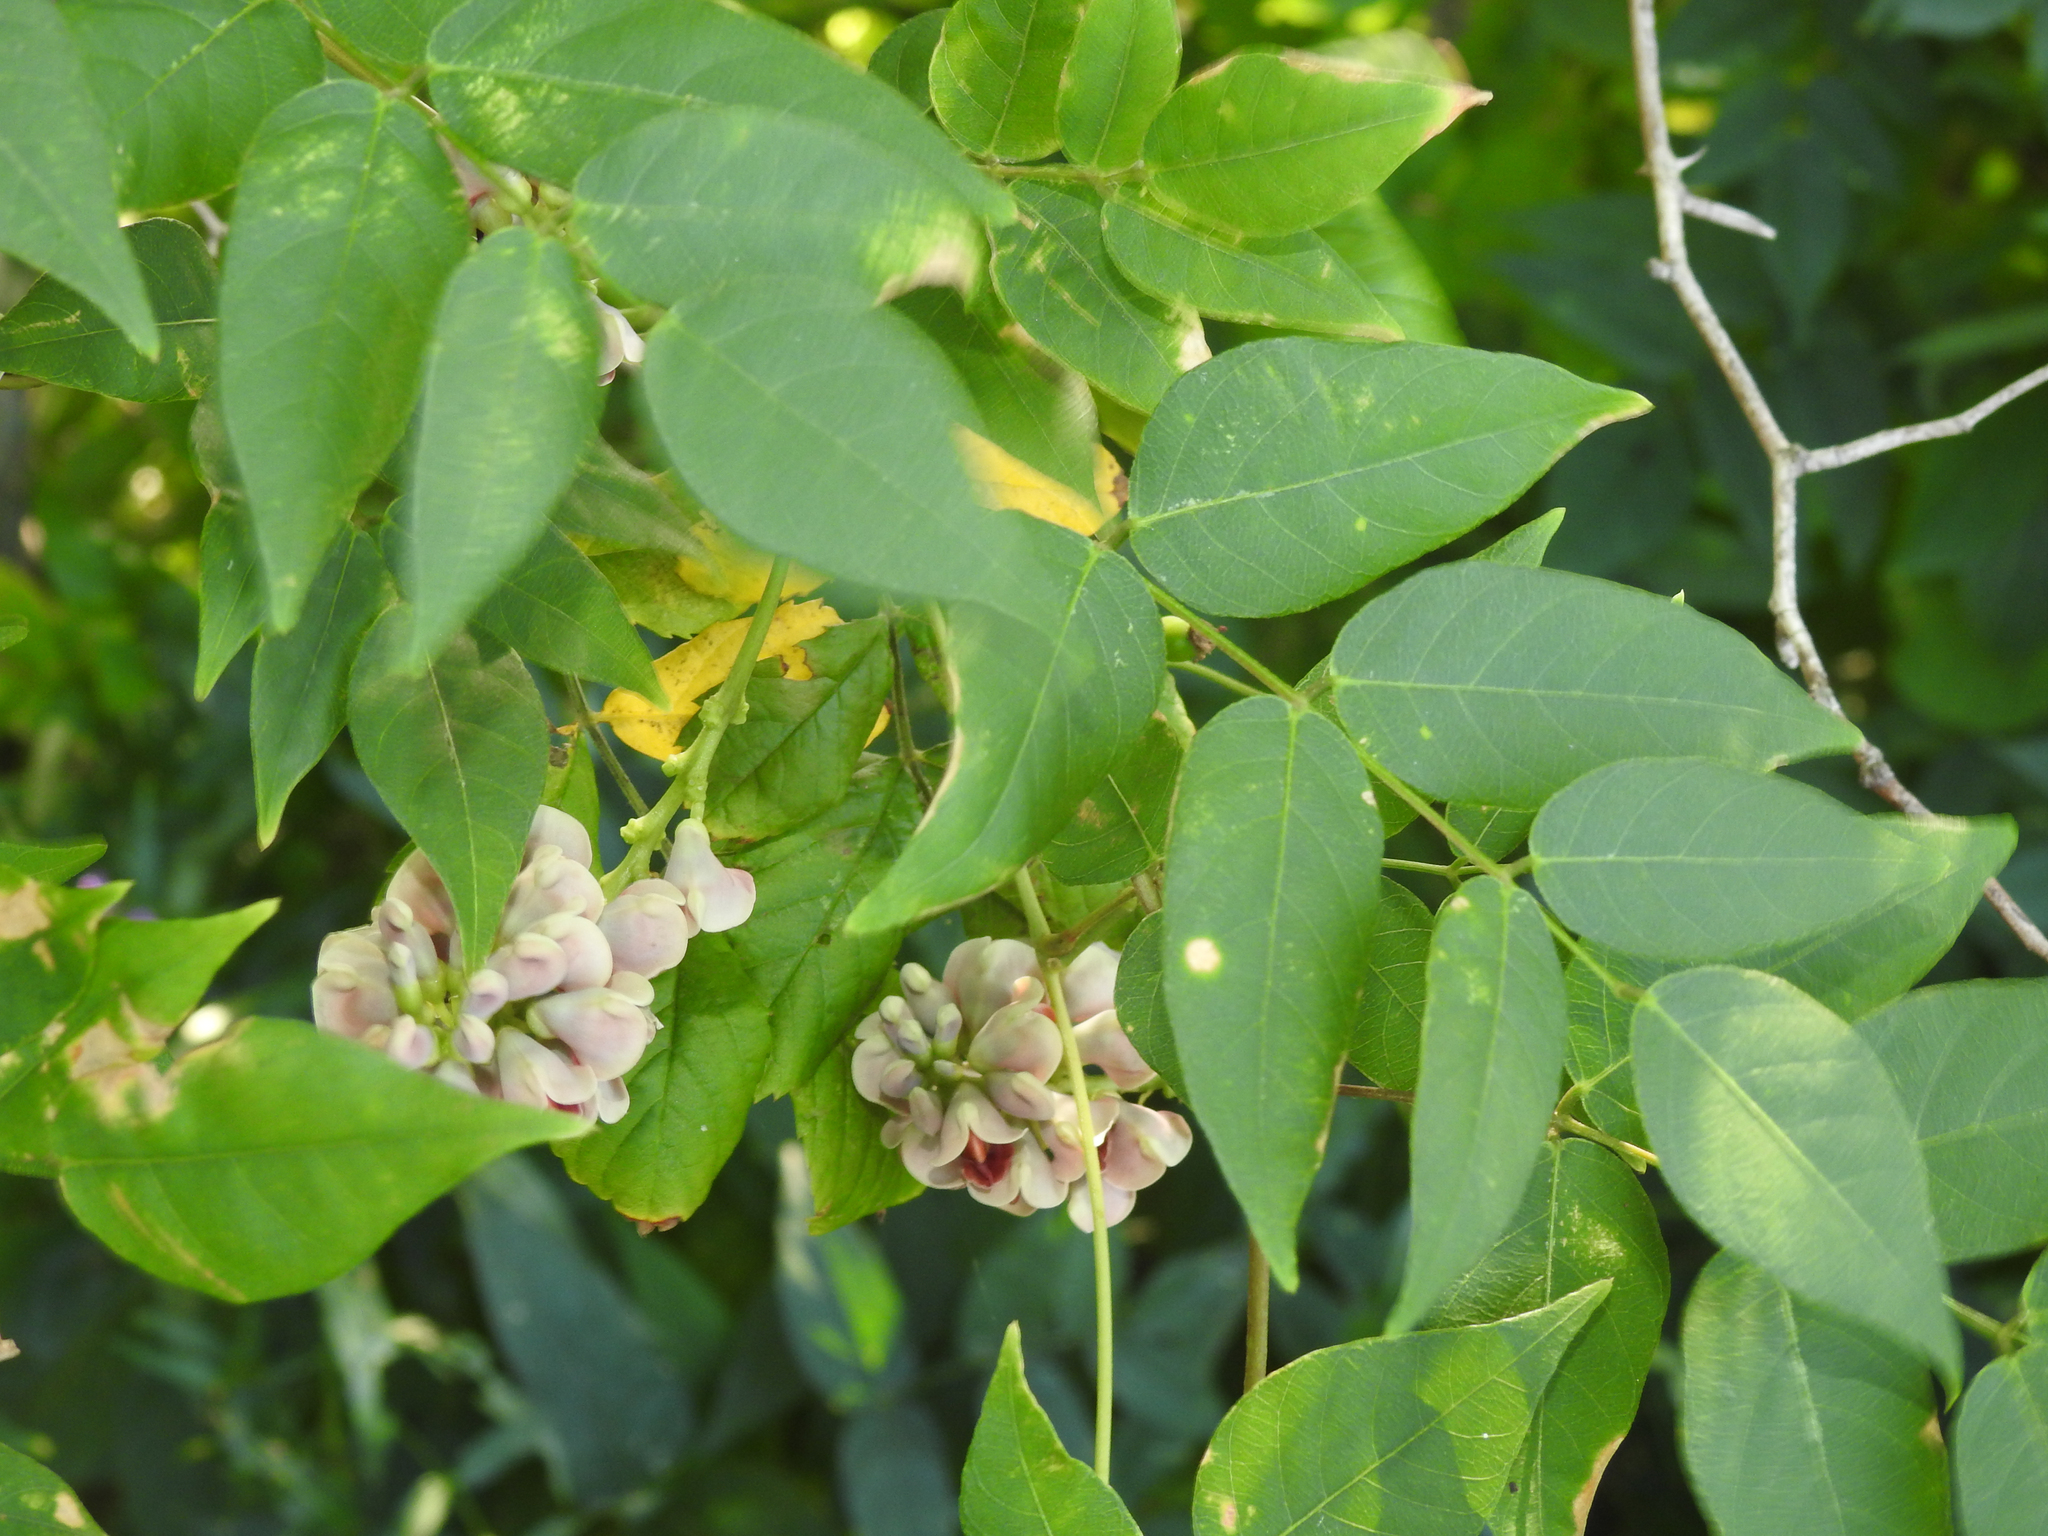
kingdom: Plantae
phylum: Tracheophyta
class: Magnoliopsida
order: Fabales
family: Fabaceae
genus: Apios
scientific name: Apios americana
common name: American potato-bean
